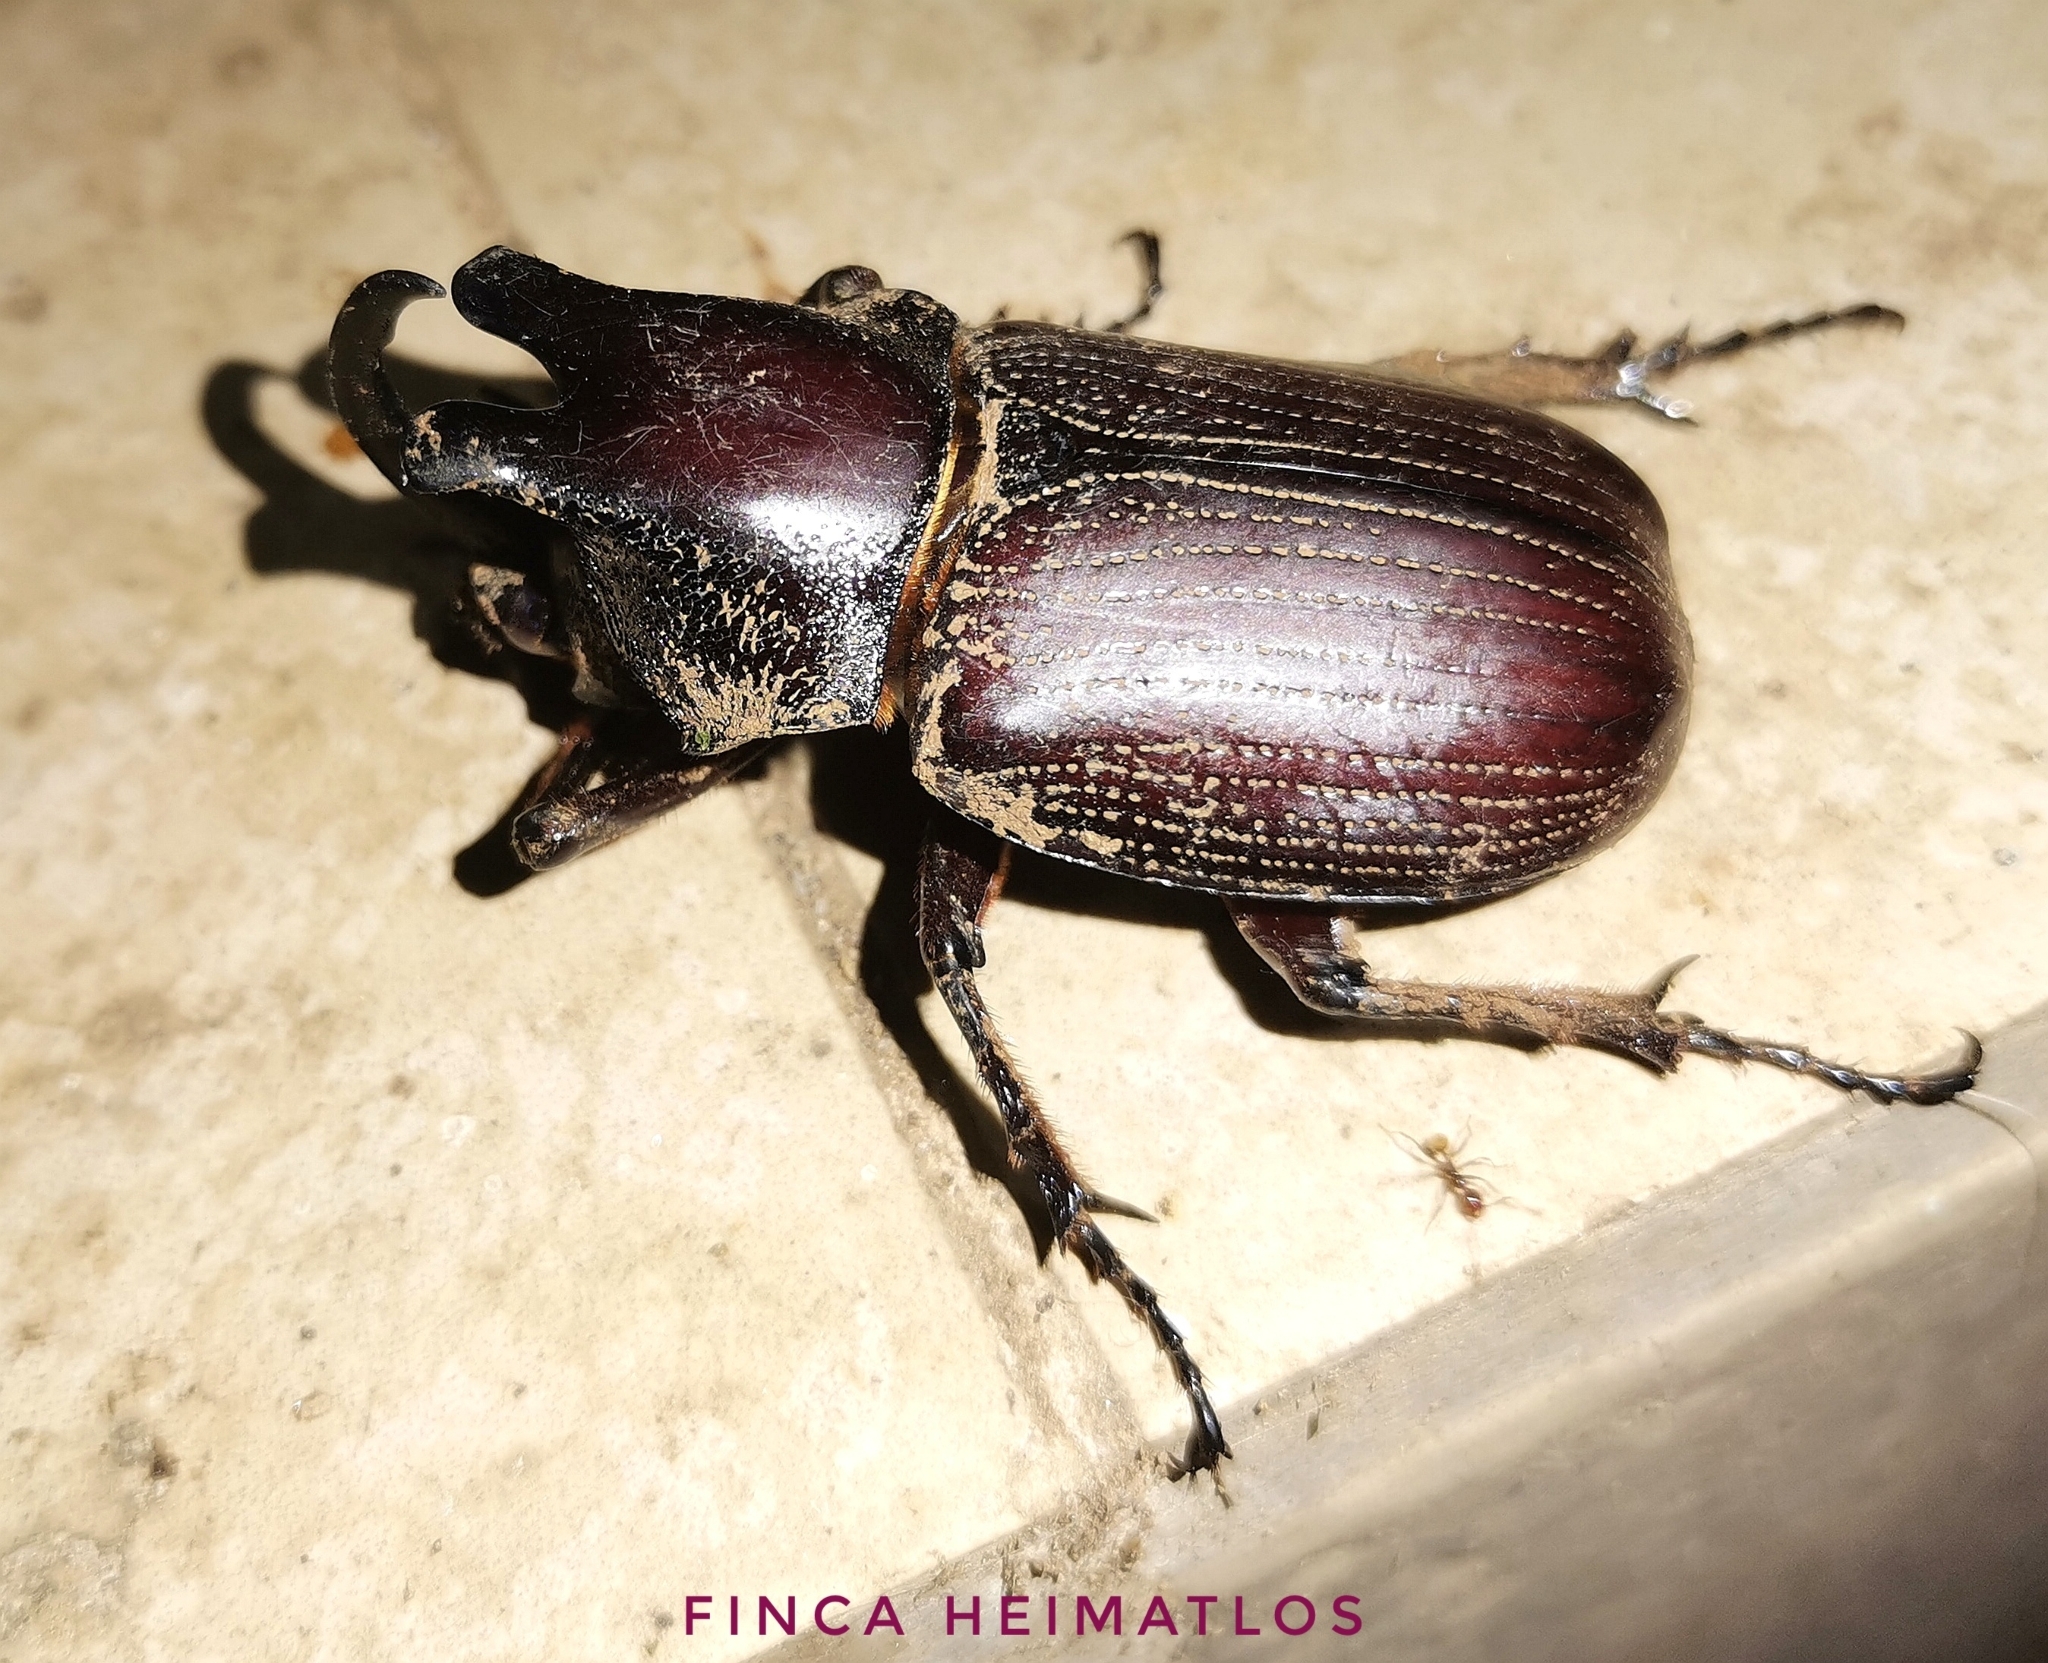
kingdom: Animalia
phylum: Arthropoda
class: Insecta
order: Coleoptera
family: Scarabaeidae
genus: Coelosis
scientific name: Coelosis biloba
